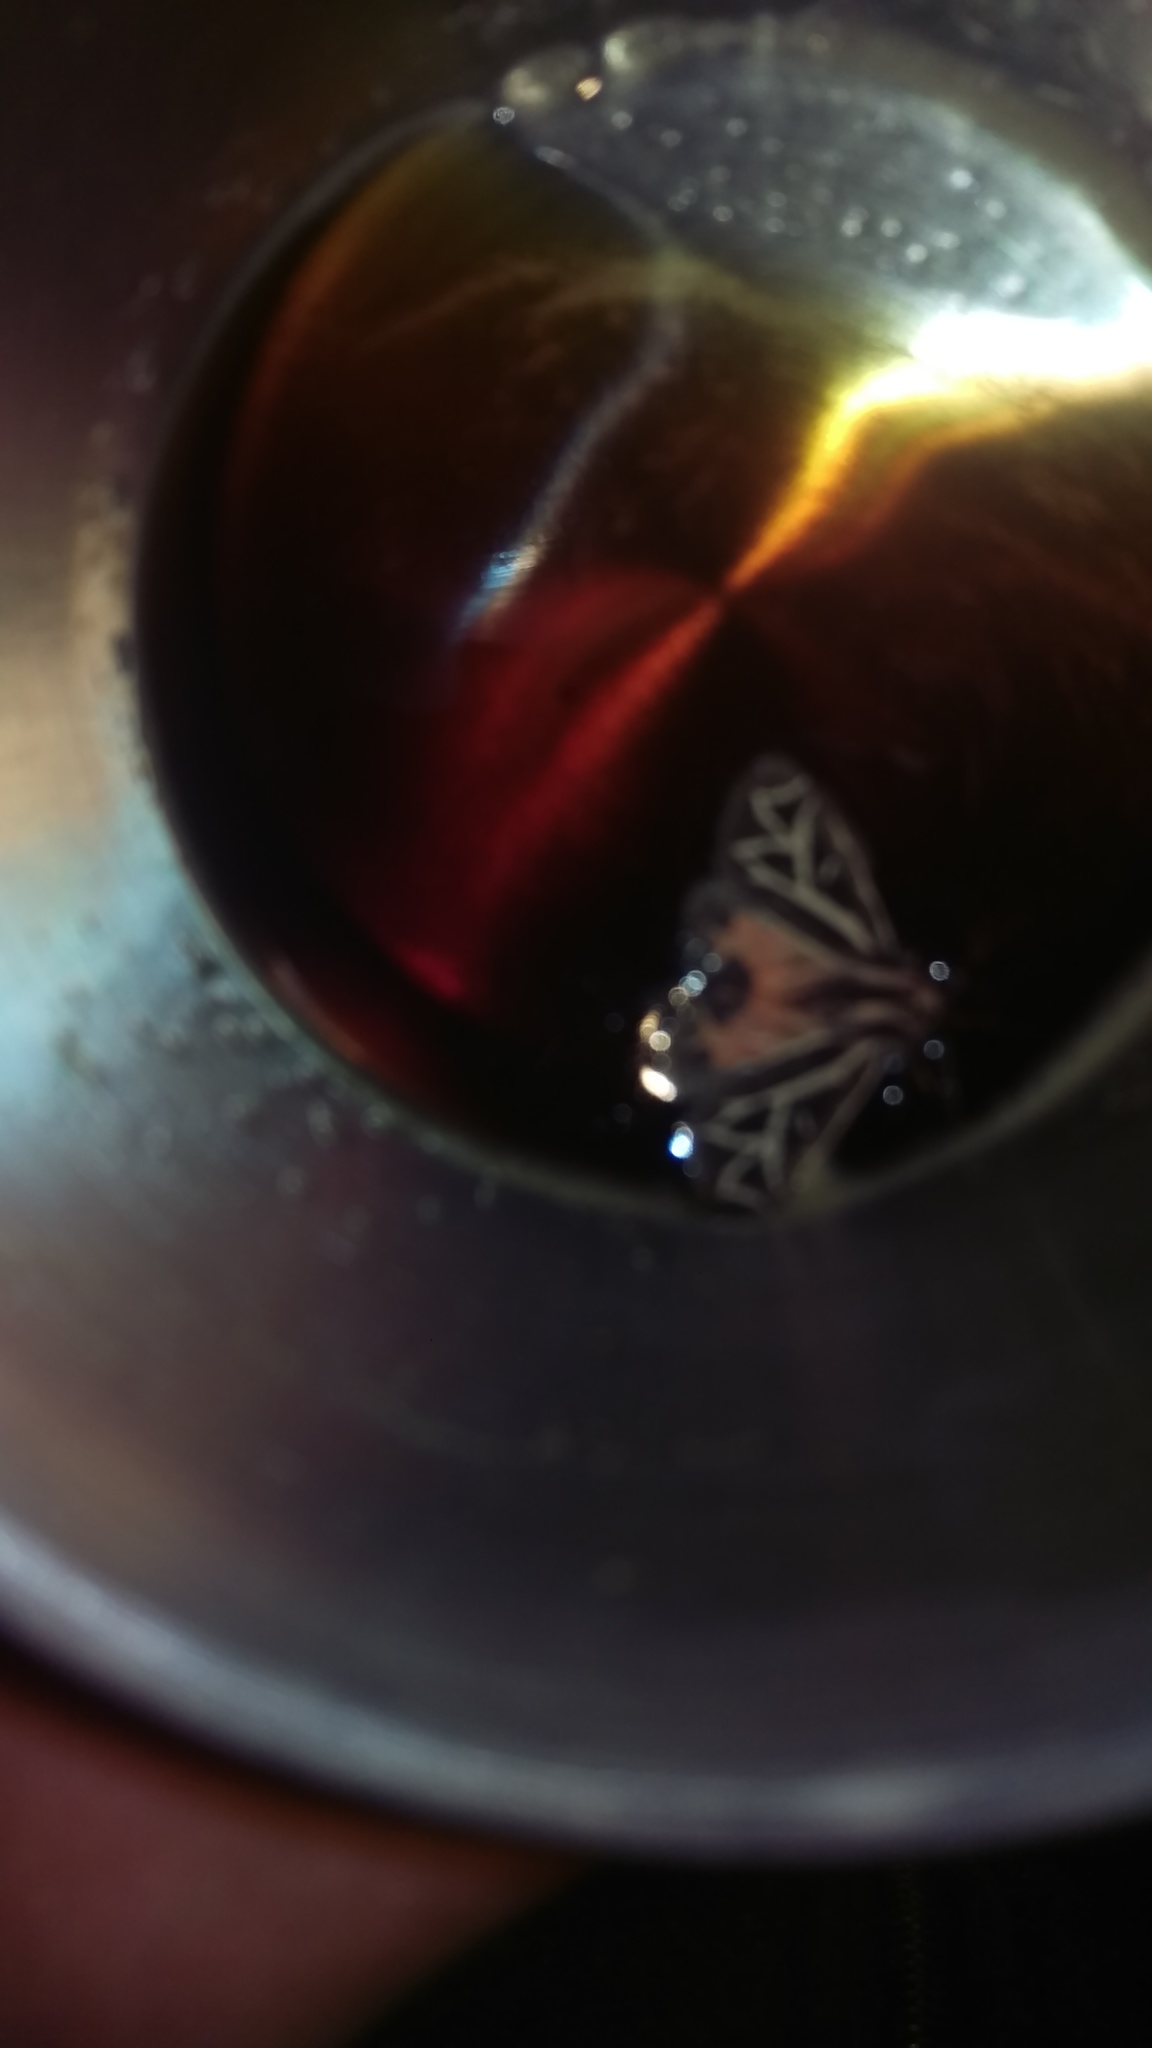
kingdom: Animalia
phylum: Arthropoda
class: Insecta
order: Lepidoptera
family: Erebidae
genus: Apantesis
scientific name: Apantesis
